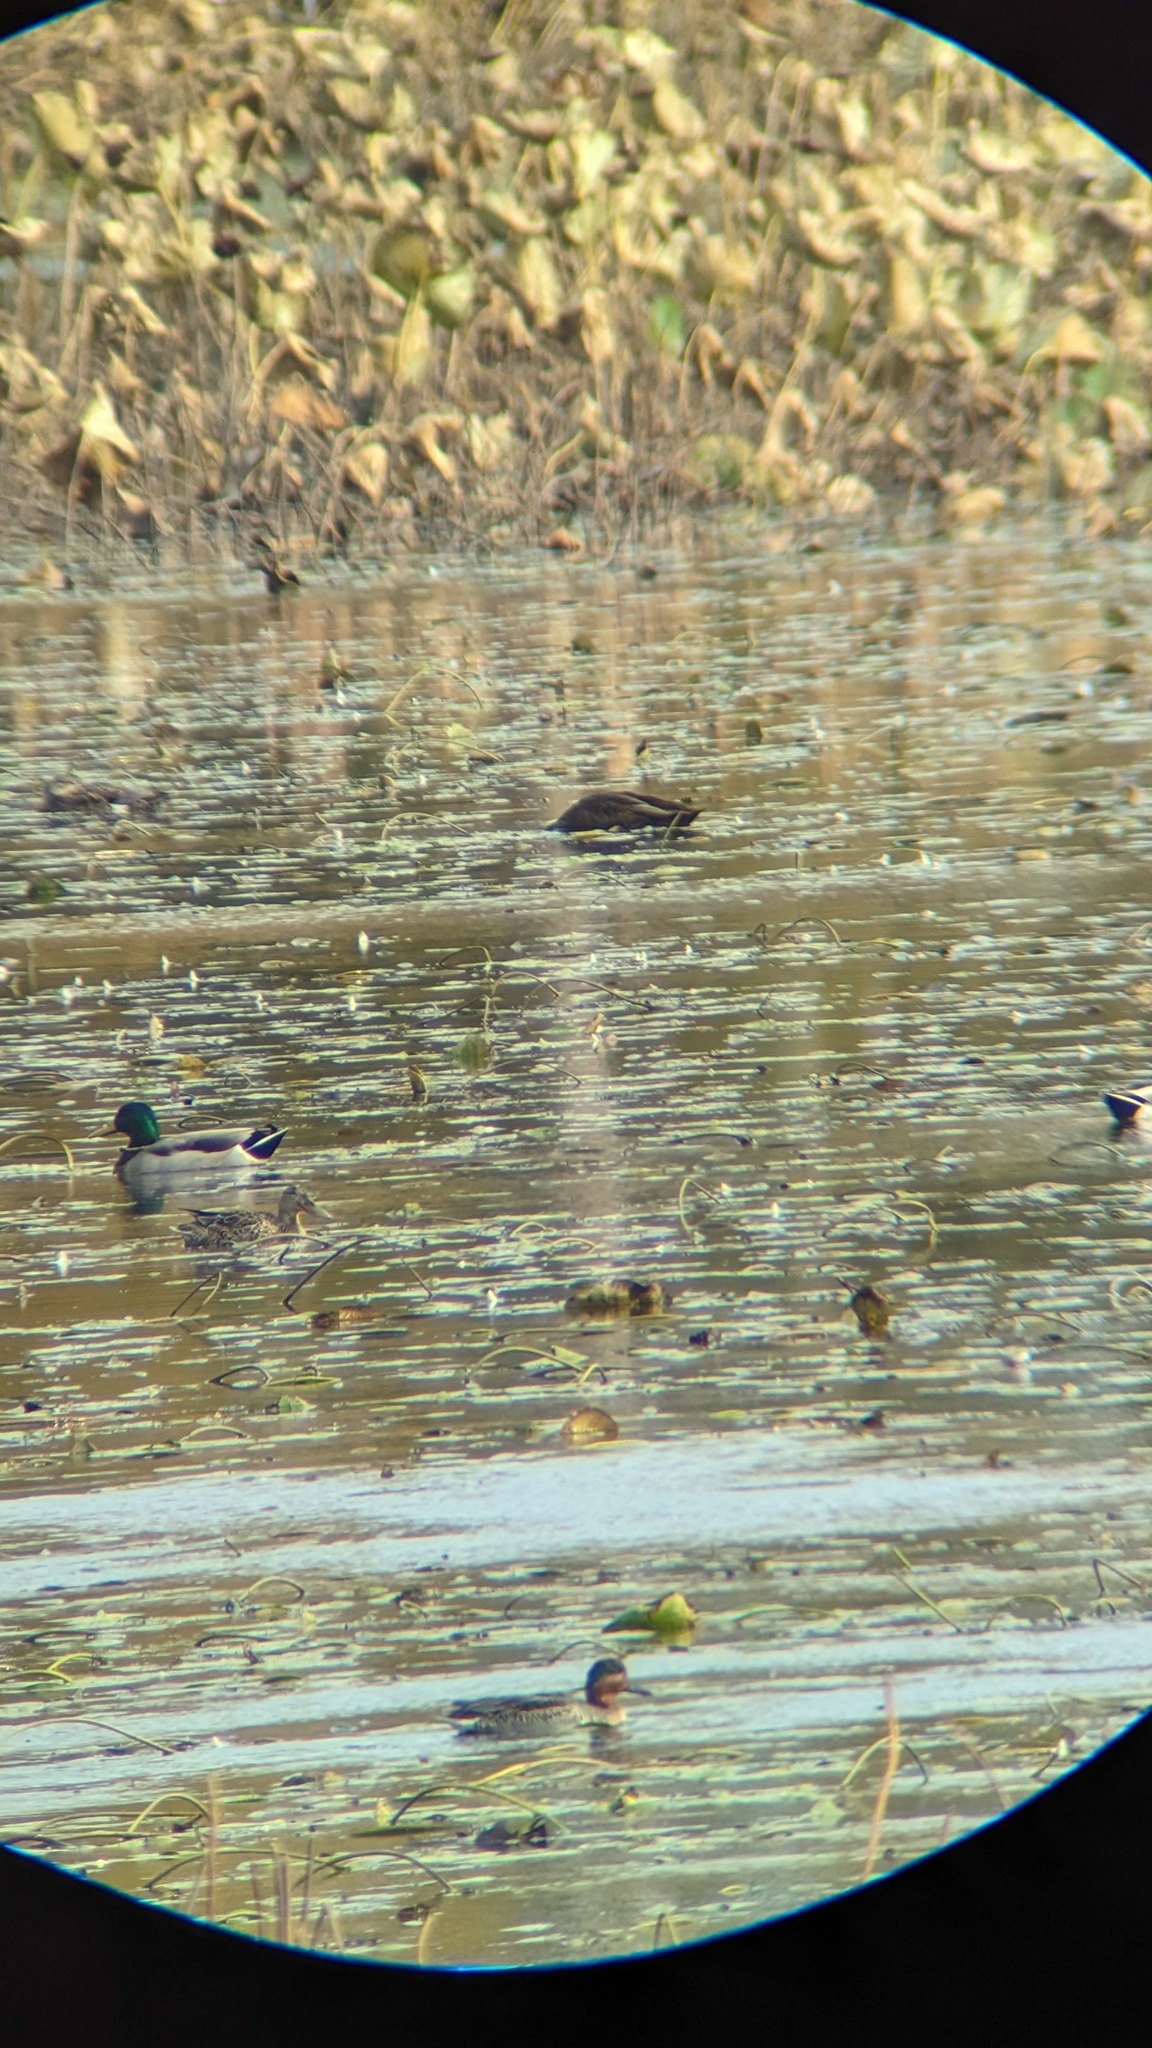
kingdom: Animalia
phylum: Chordata
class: Aves
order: Anseriformes
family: Anatidae
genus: Anas
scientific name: Anas rubripes
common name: American black duck
